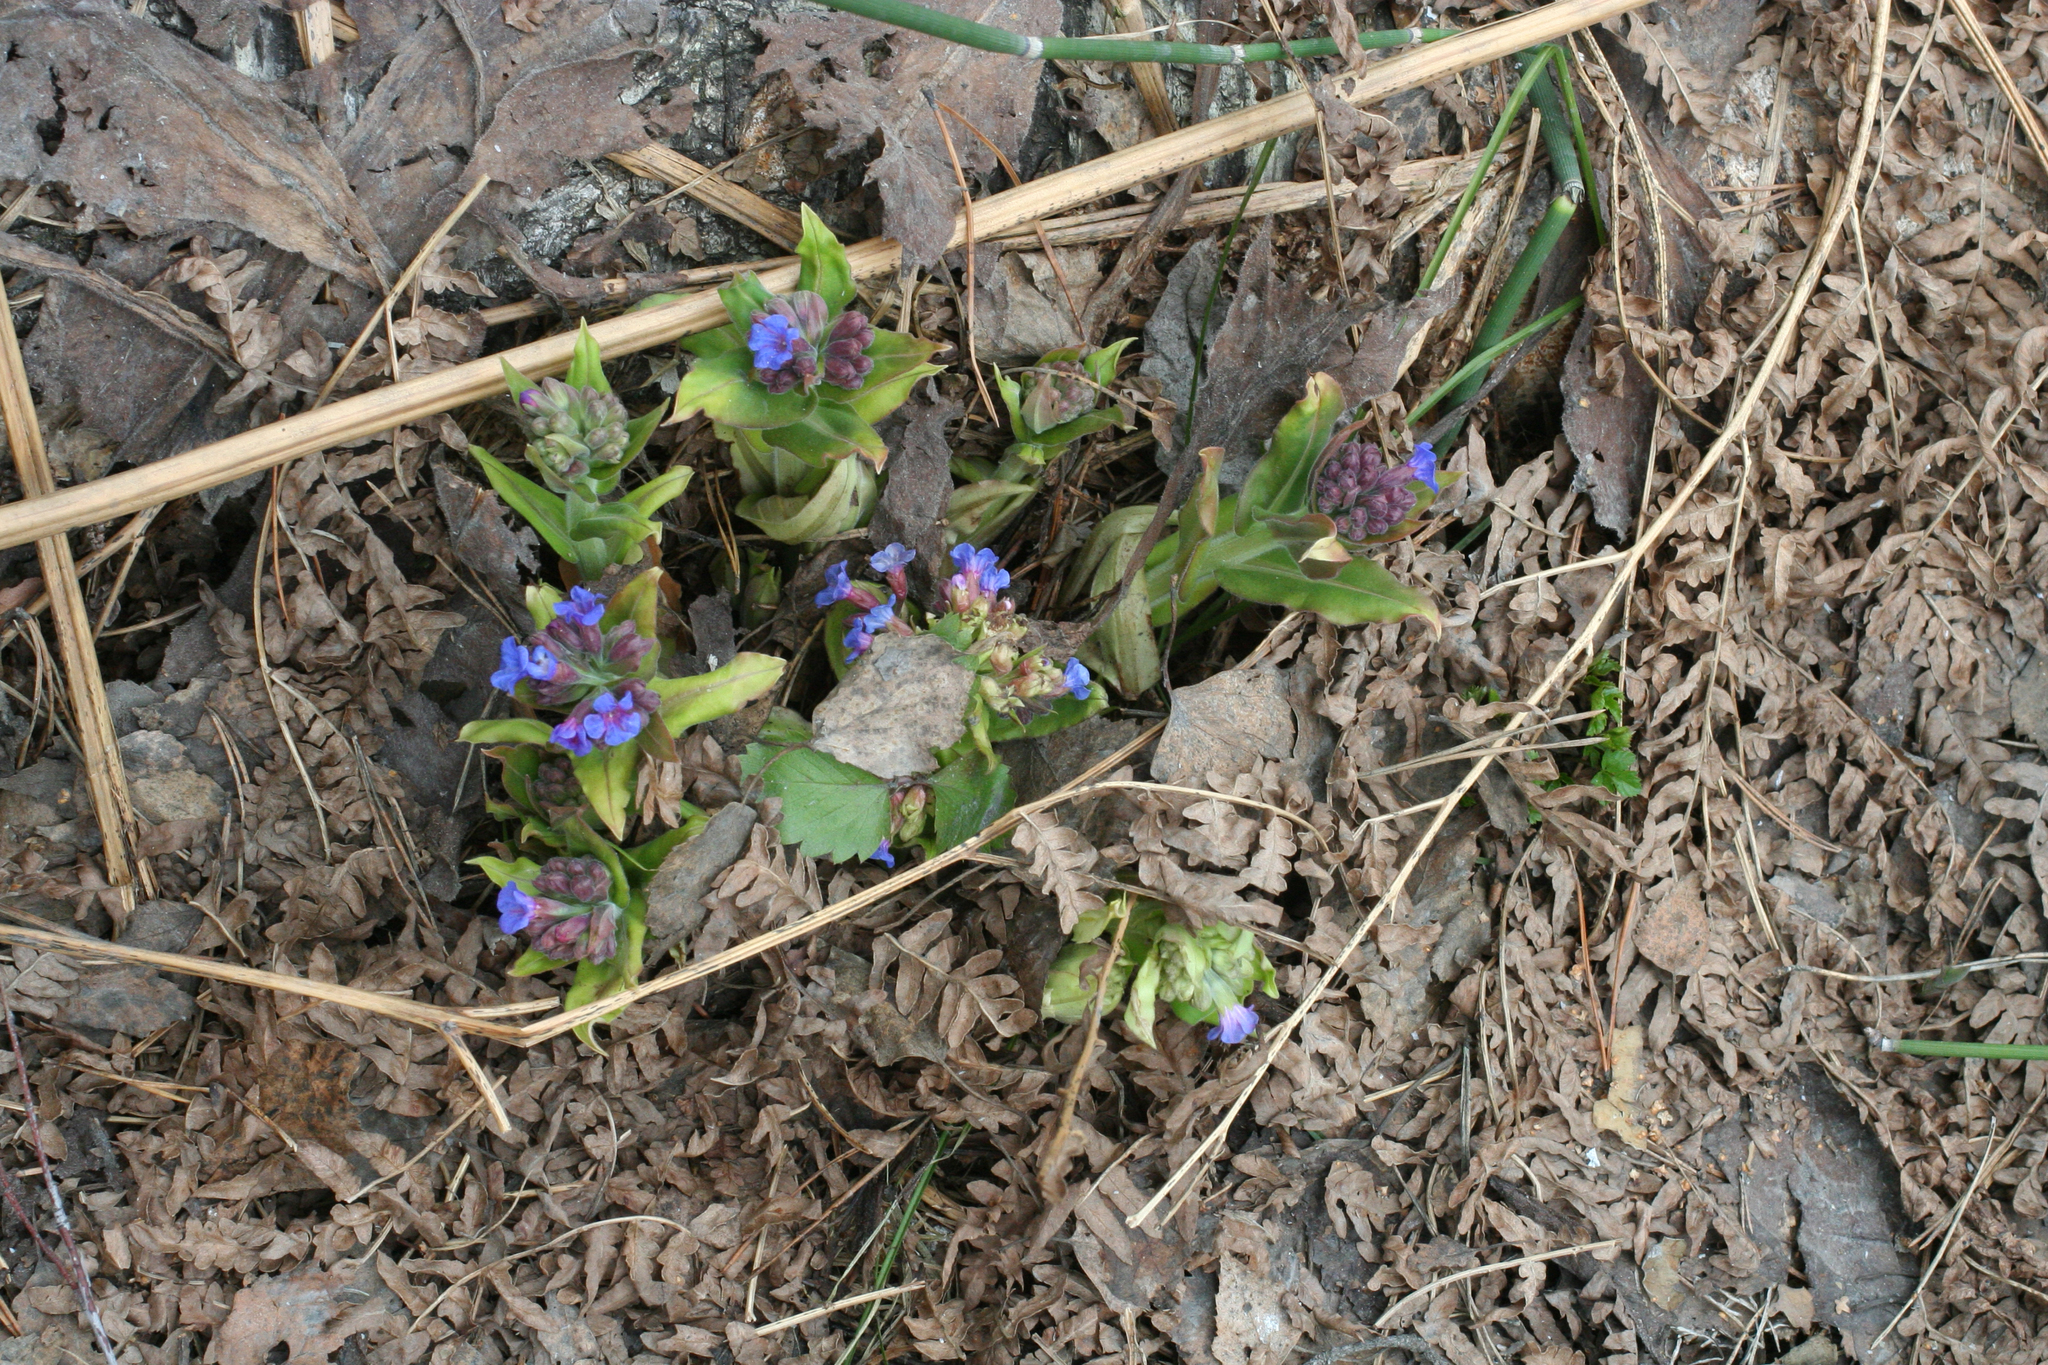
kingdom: Plantae
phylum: Tracheophyta
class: Magnoliopsida
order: Boraginales
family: Boraginaceae
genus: Pulmonaria
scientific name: Pulmonaria mollis
